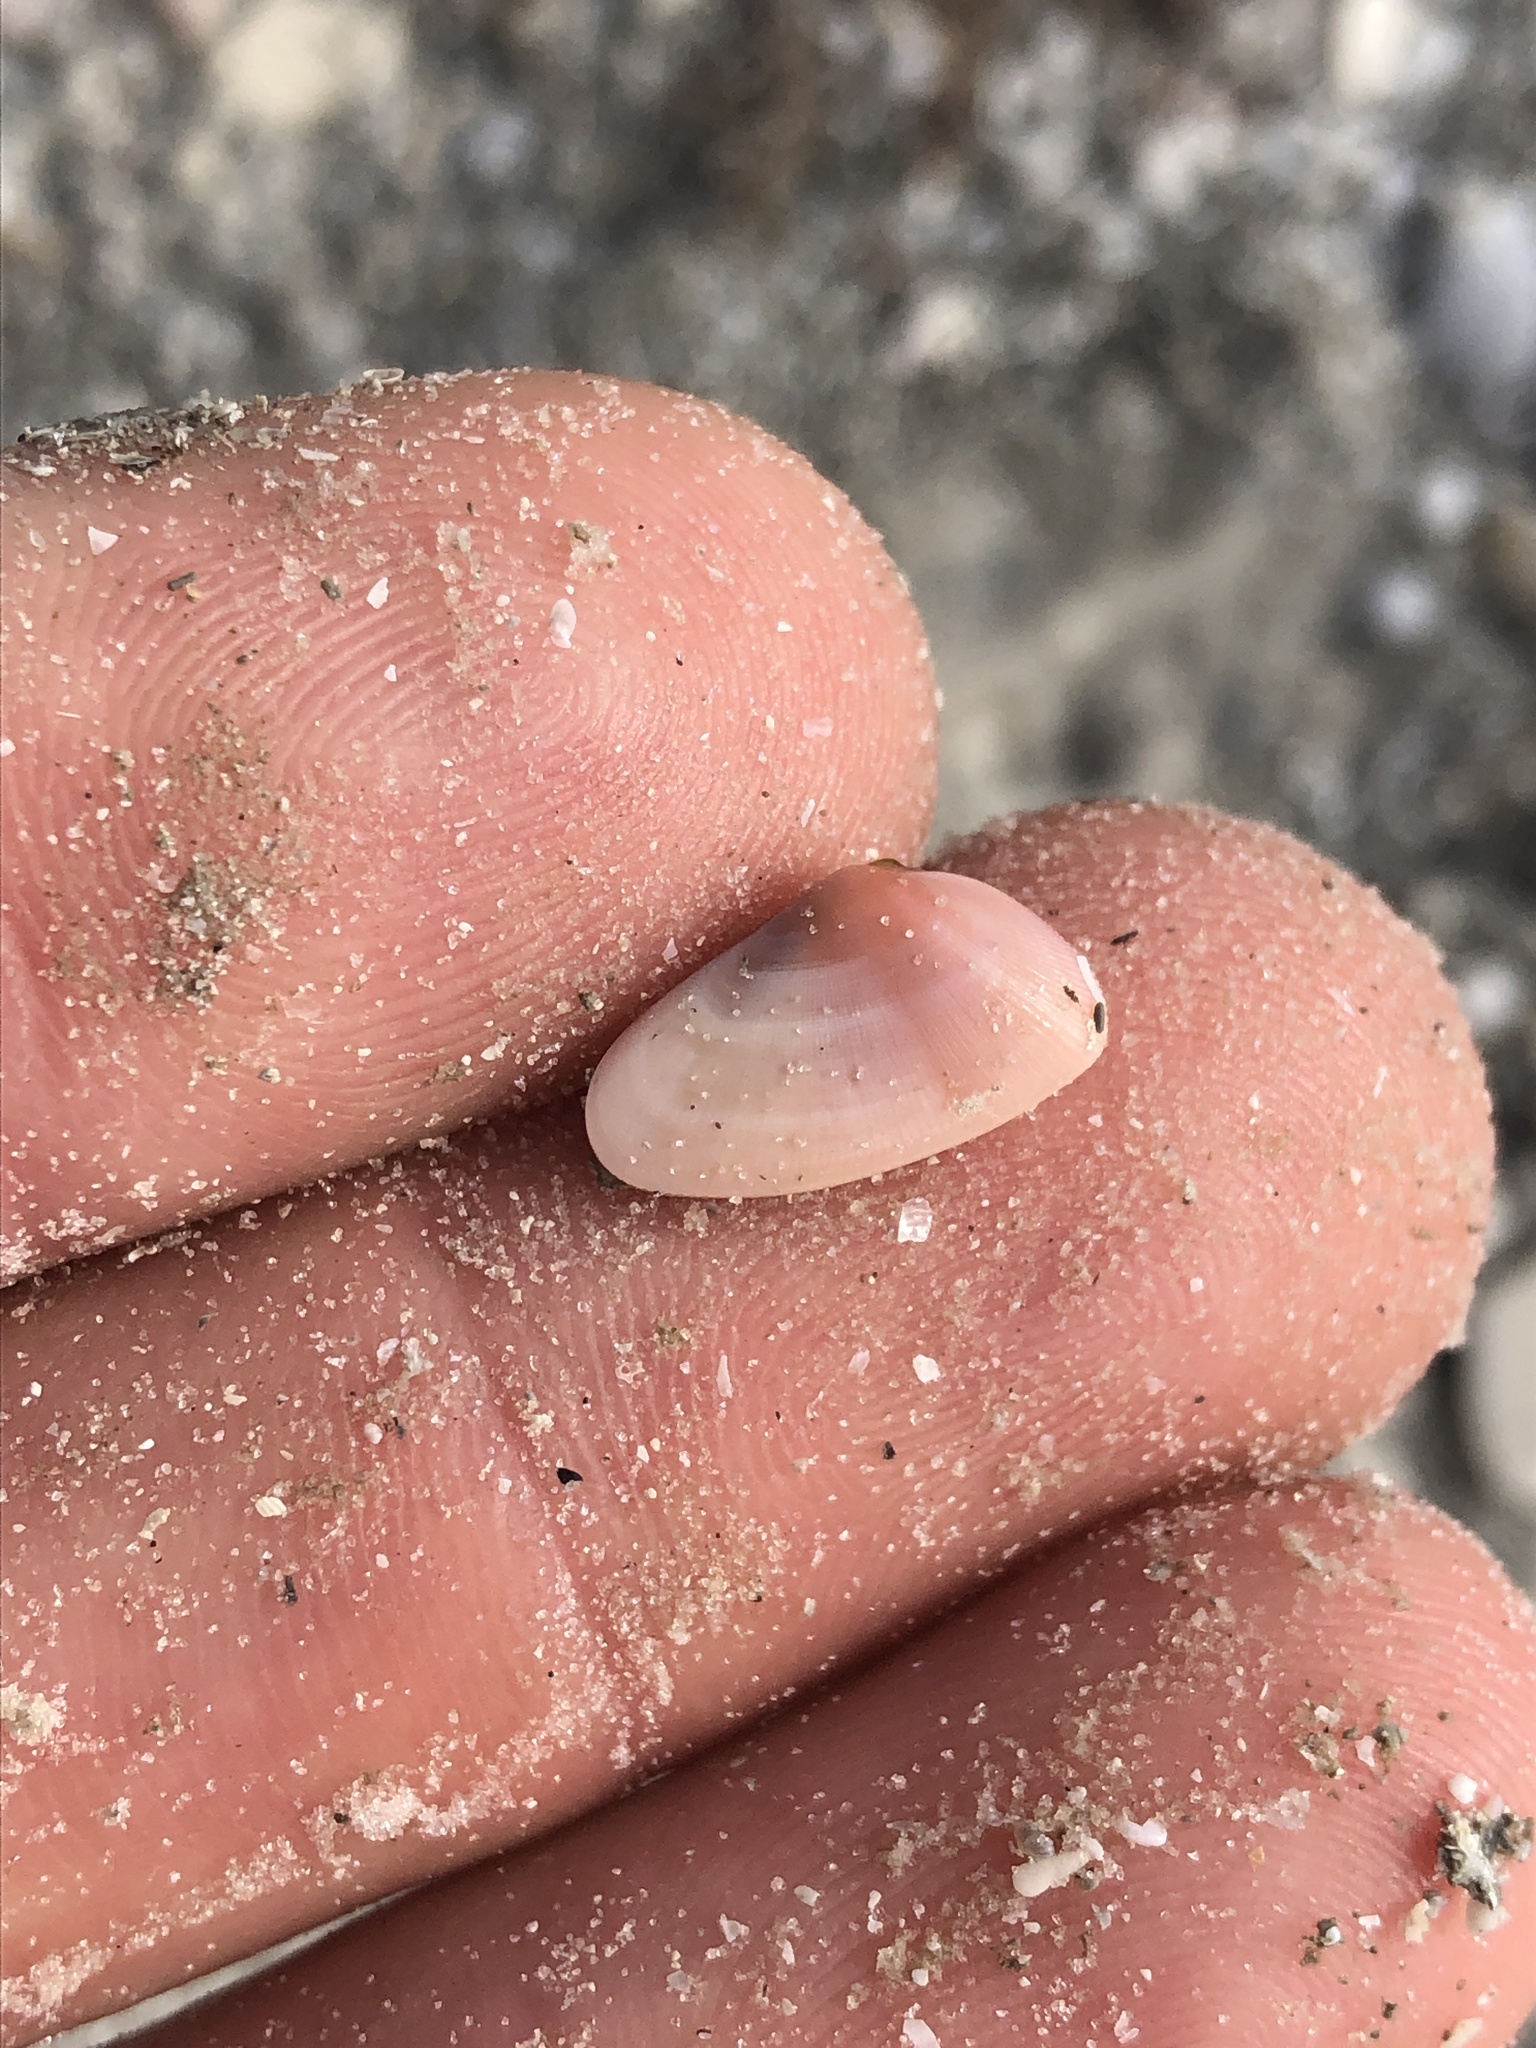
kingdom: Animalia
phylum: Mollusca
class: Bivalvia
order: Cardiida
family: Donacidae
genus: Donax
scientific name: Donax variabilis
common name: Butterfly shell
